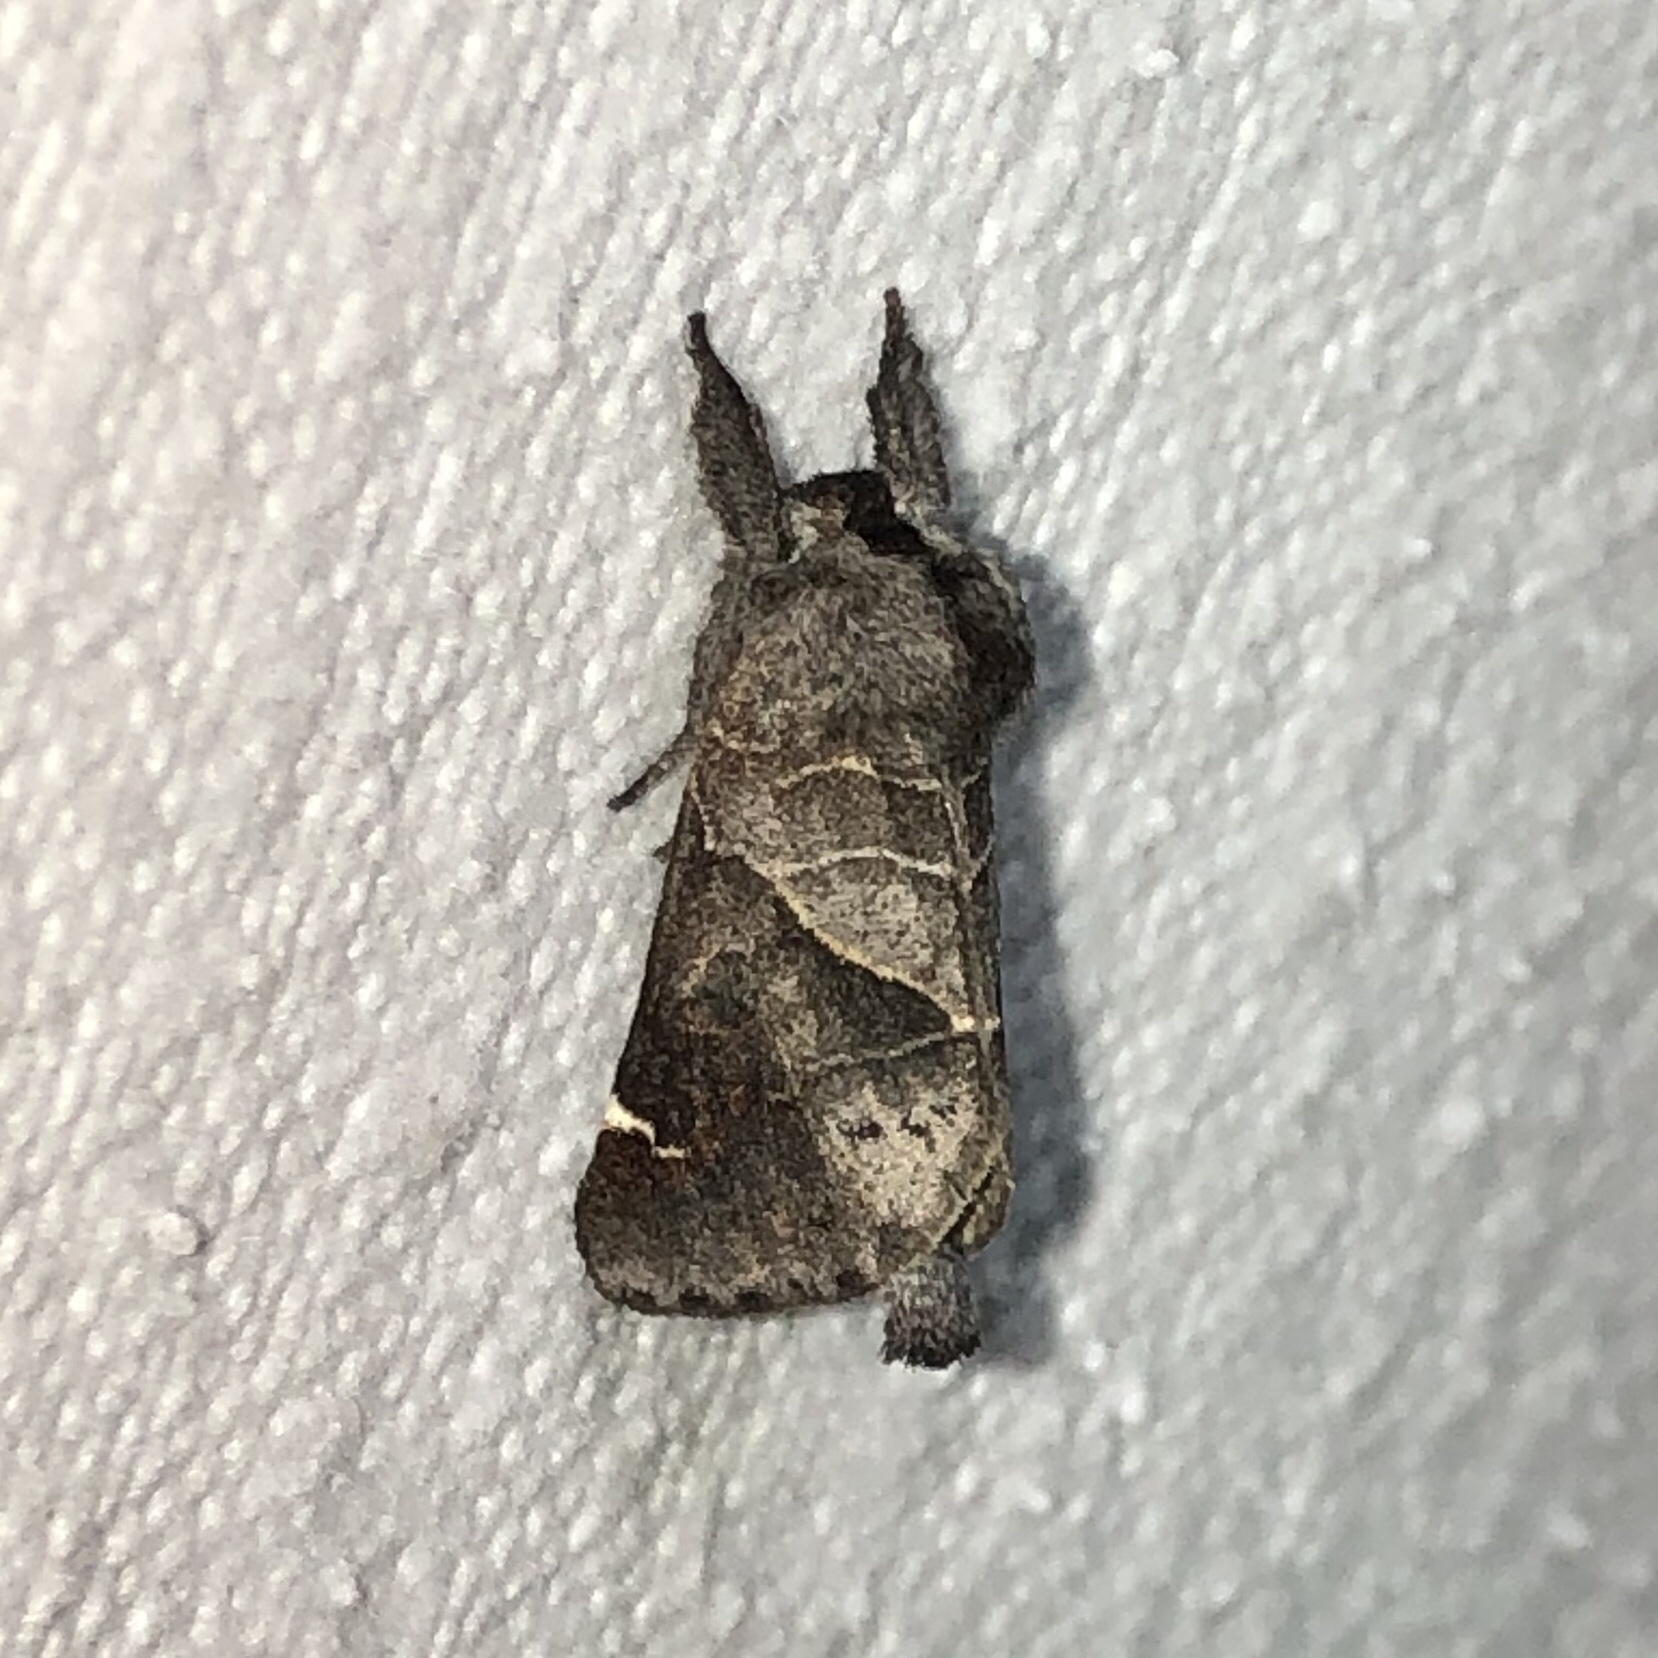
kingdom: Animalia
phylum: Arthropoda
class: Insecta
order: Lepidoptera
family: Notodontidae
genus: Clostera
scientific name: Clostera apicalis
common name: Apical prominent
